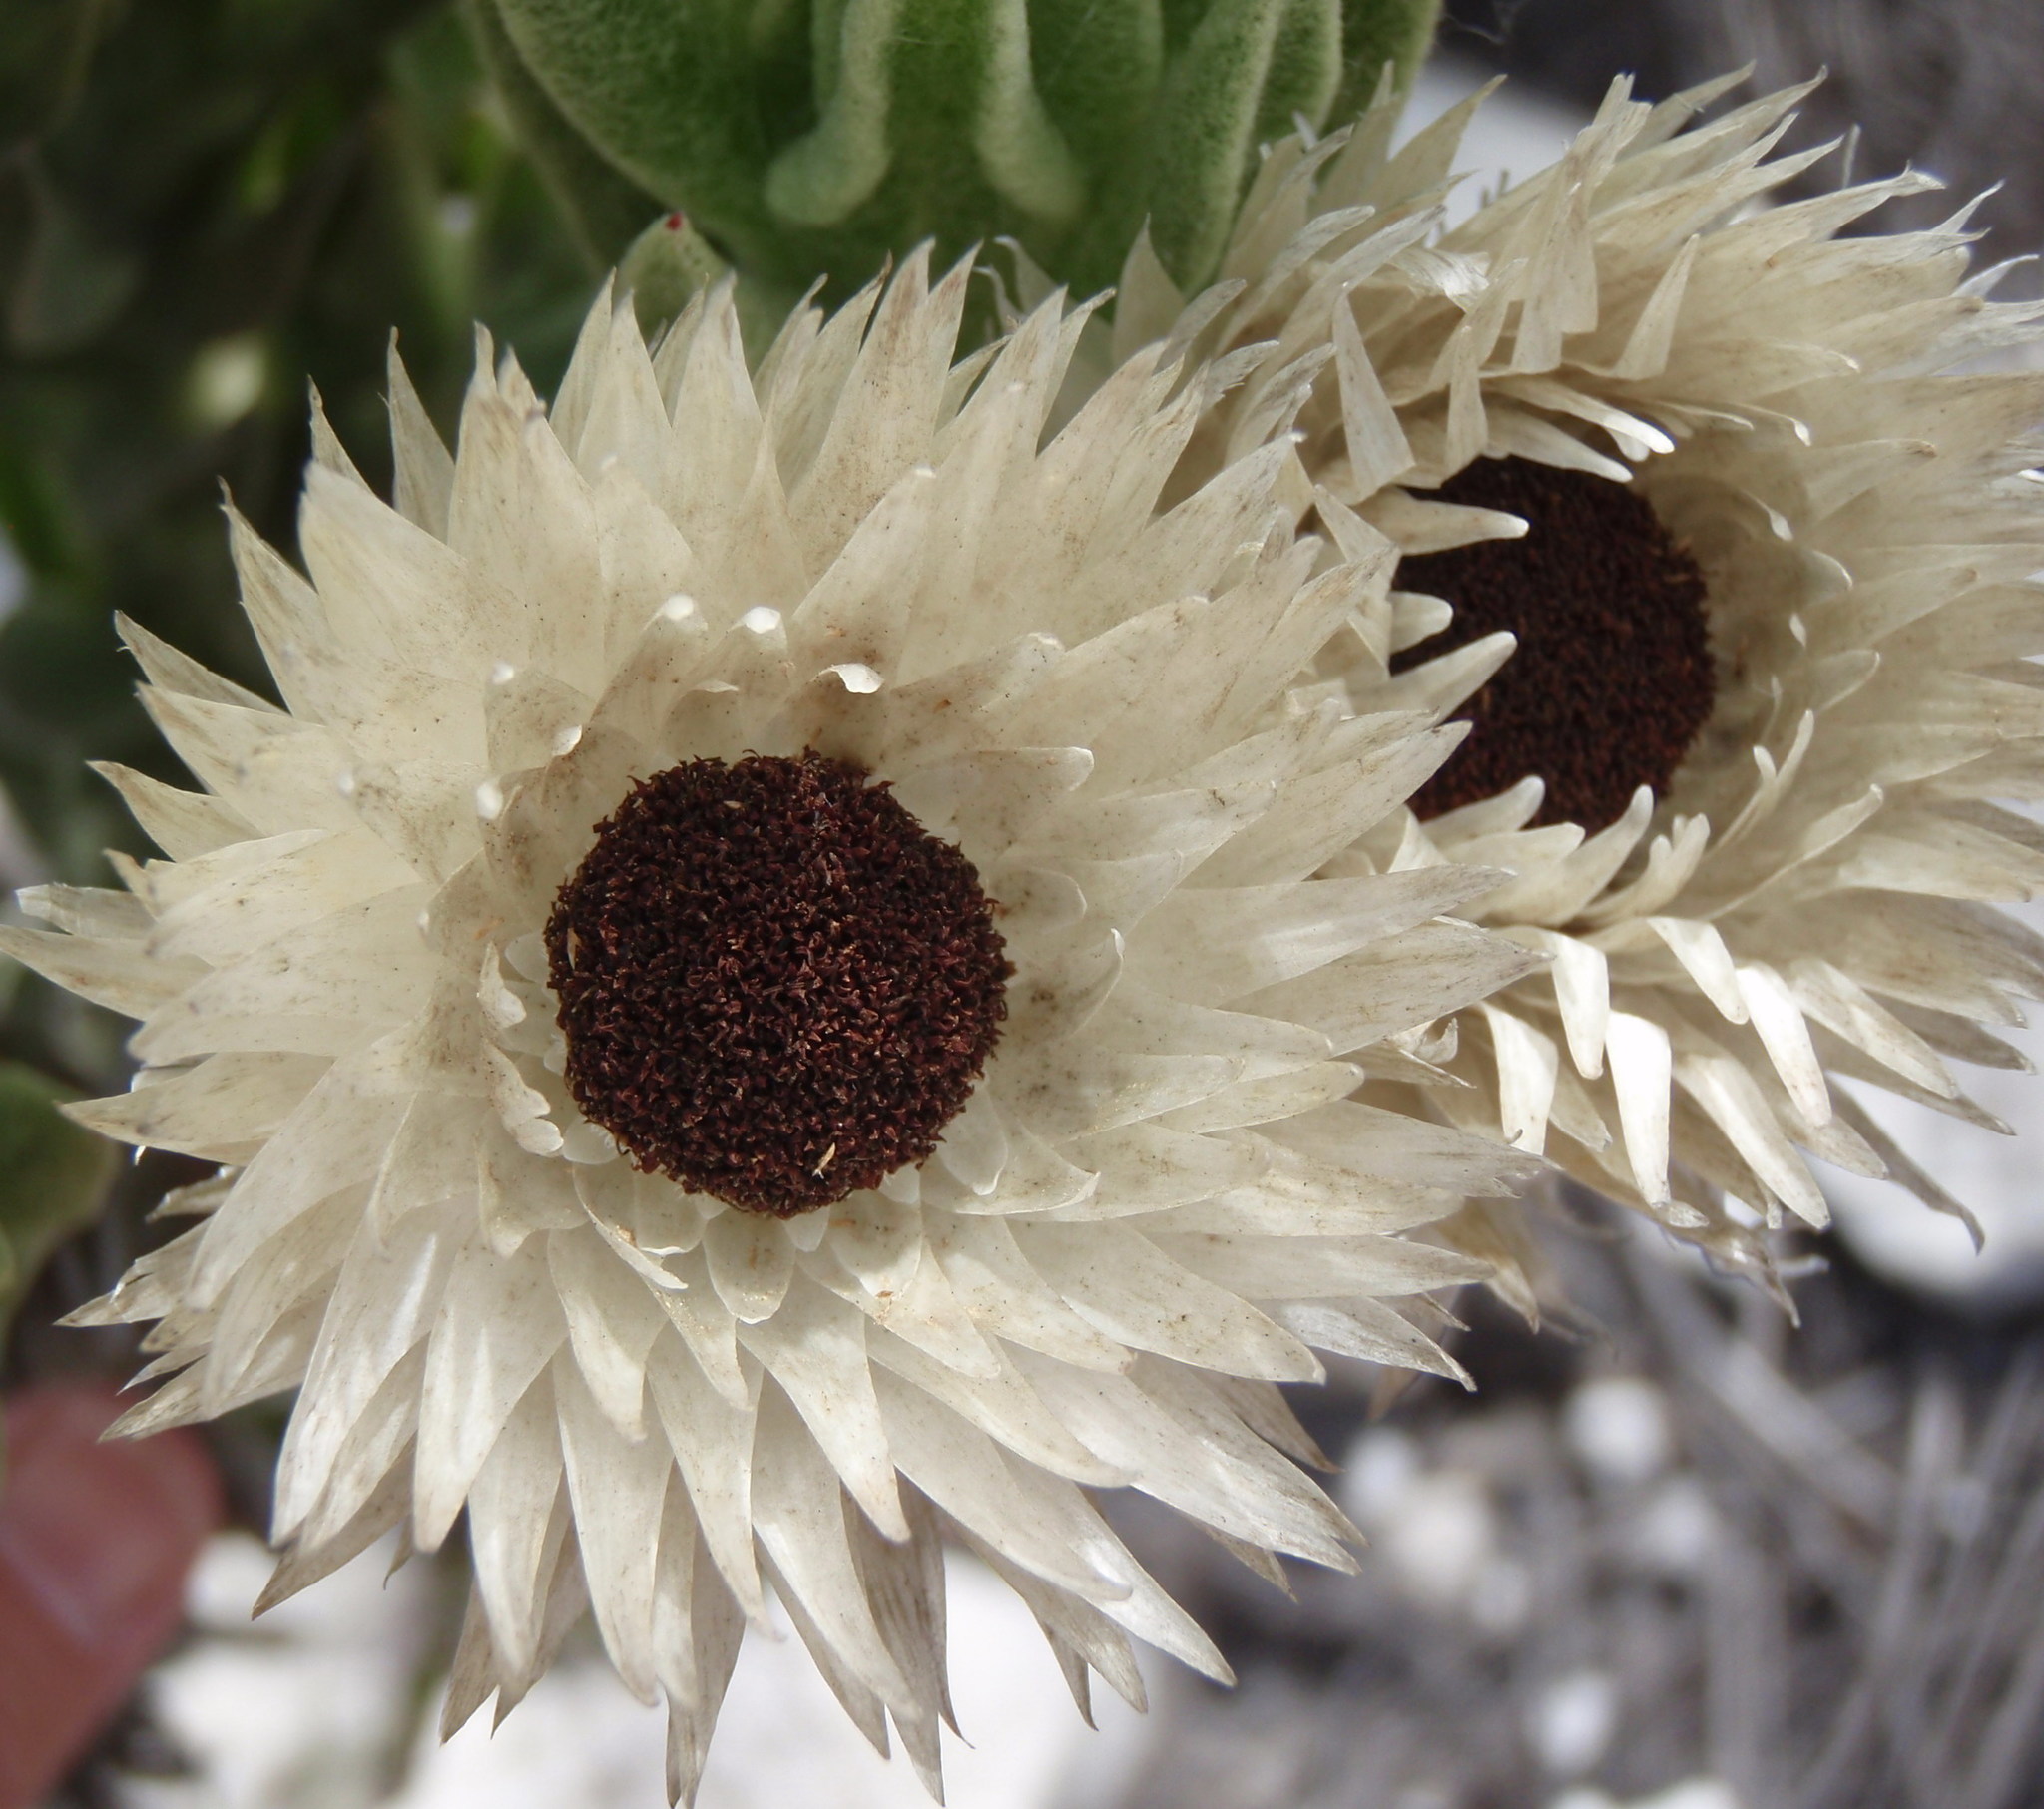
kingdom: Plantae
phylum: Tracheophyta
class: Magnoliopsida
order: Asterales
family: Asteraceae
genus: Syncarpha
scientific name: Syncarpha vestita
